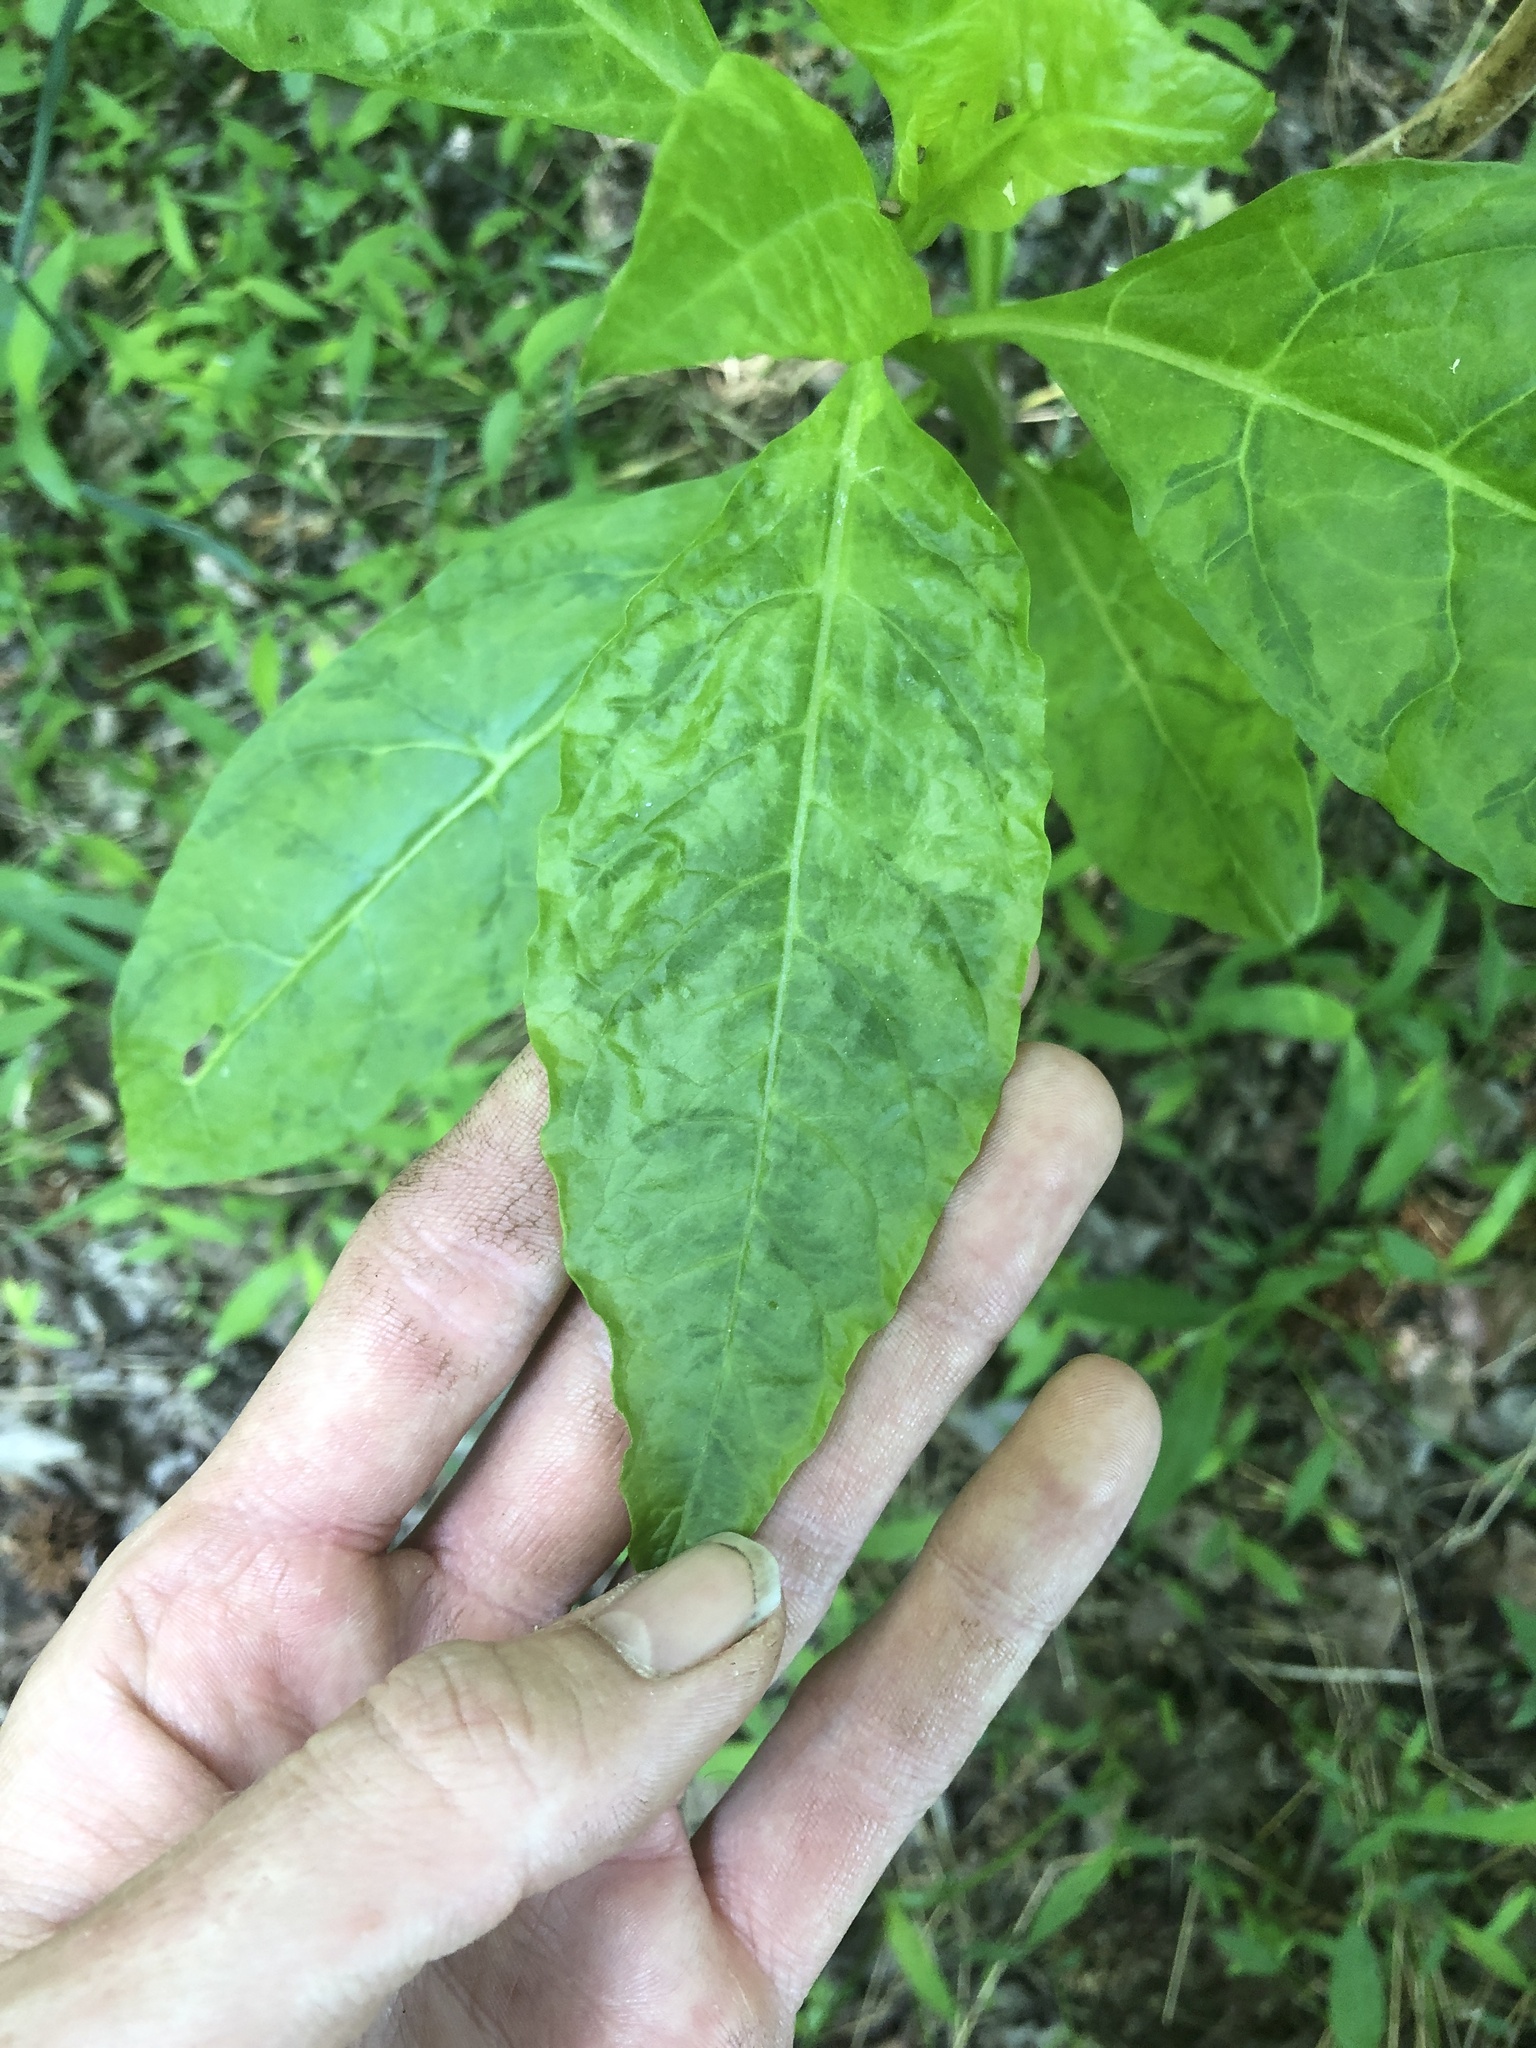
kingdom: Viruses
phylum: Pisuviricota
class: Stelpaviricetes
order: Patatavirales
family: Potyviridae
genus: Potyvirus
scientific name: Potyvirus Pokeweed mosaic virus
